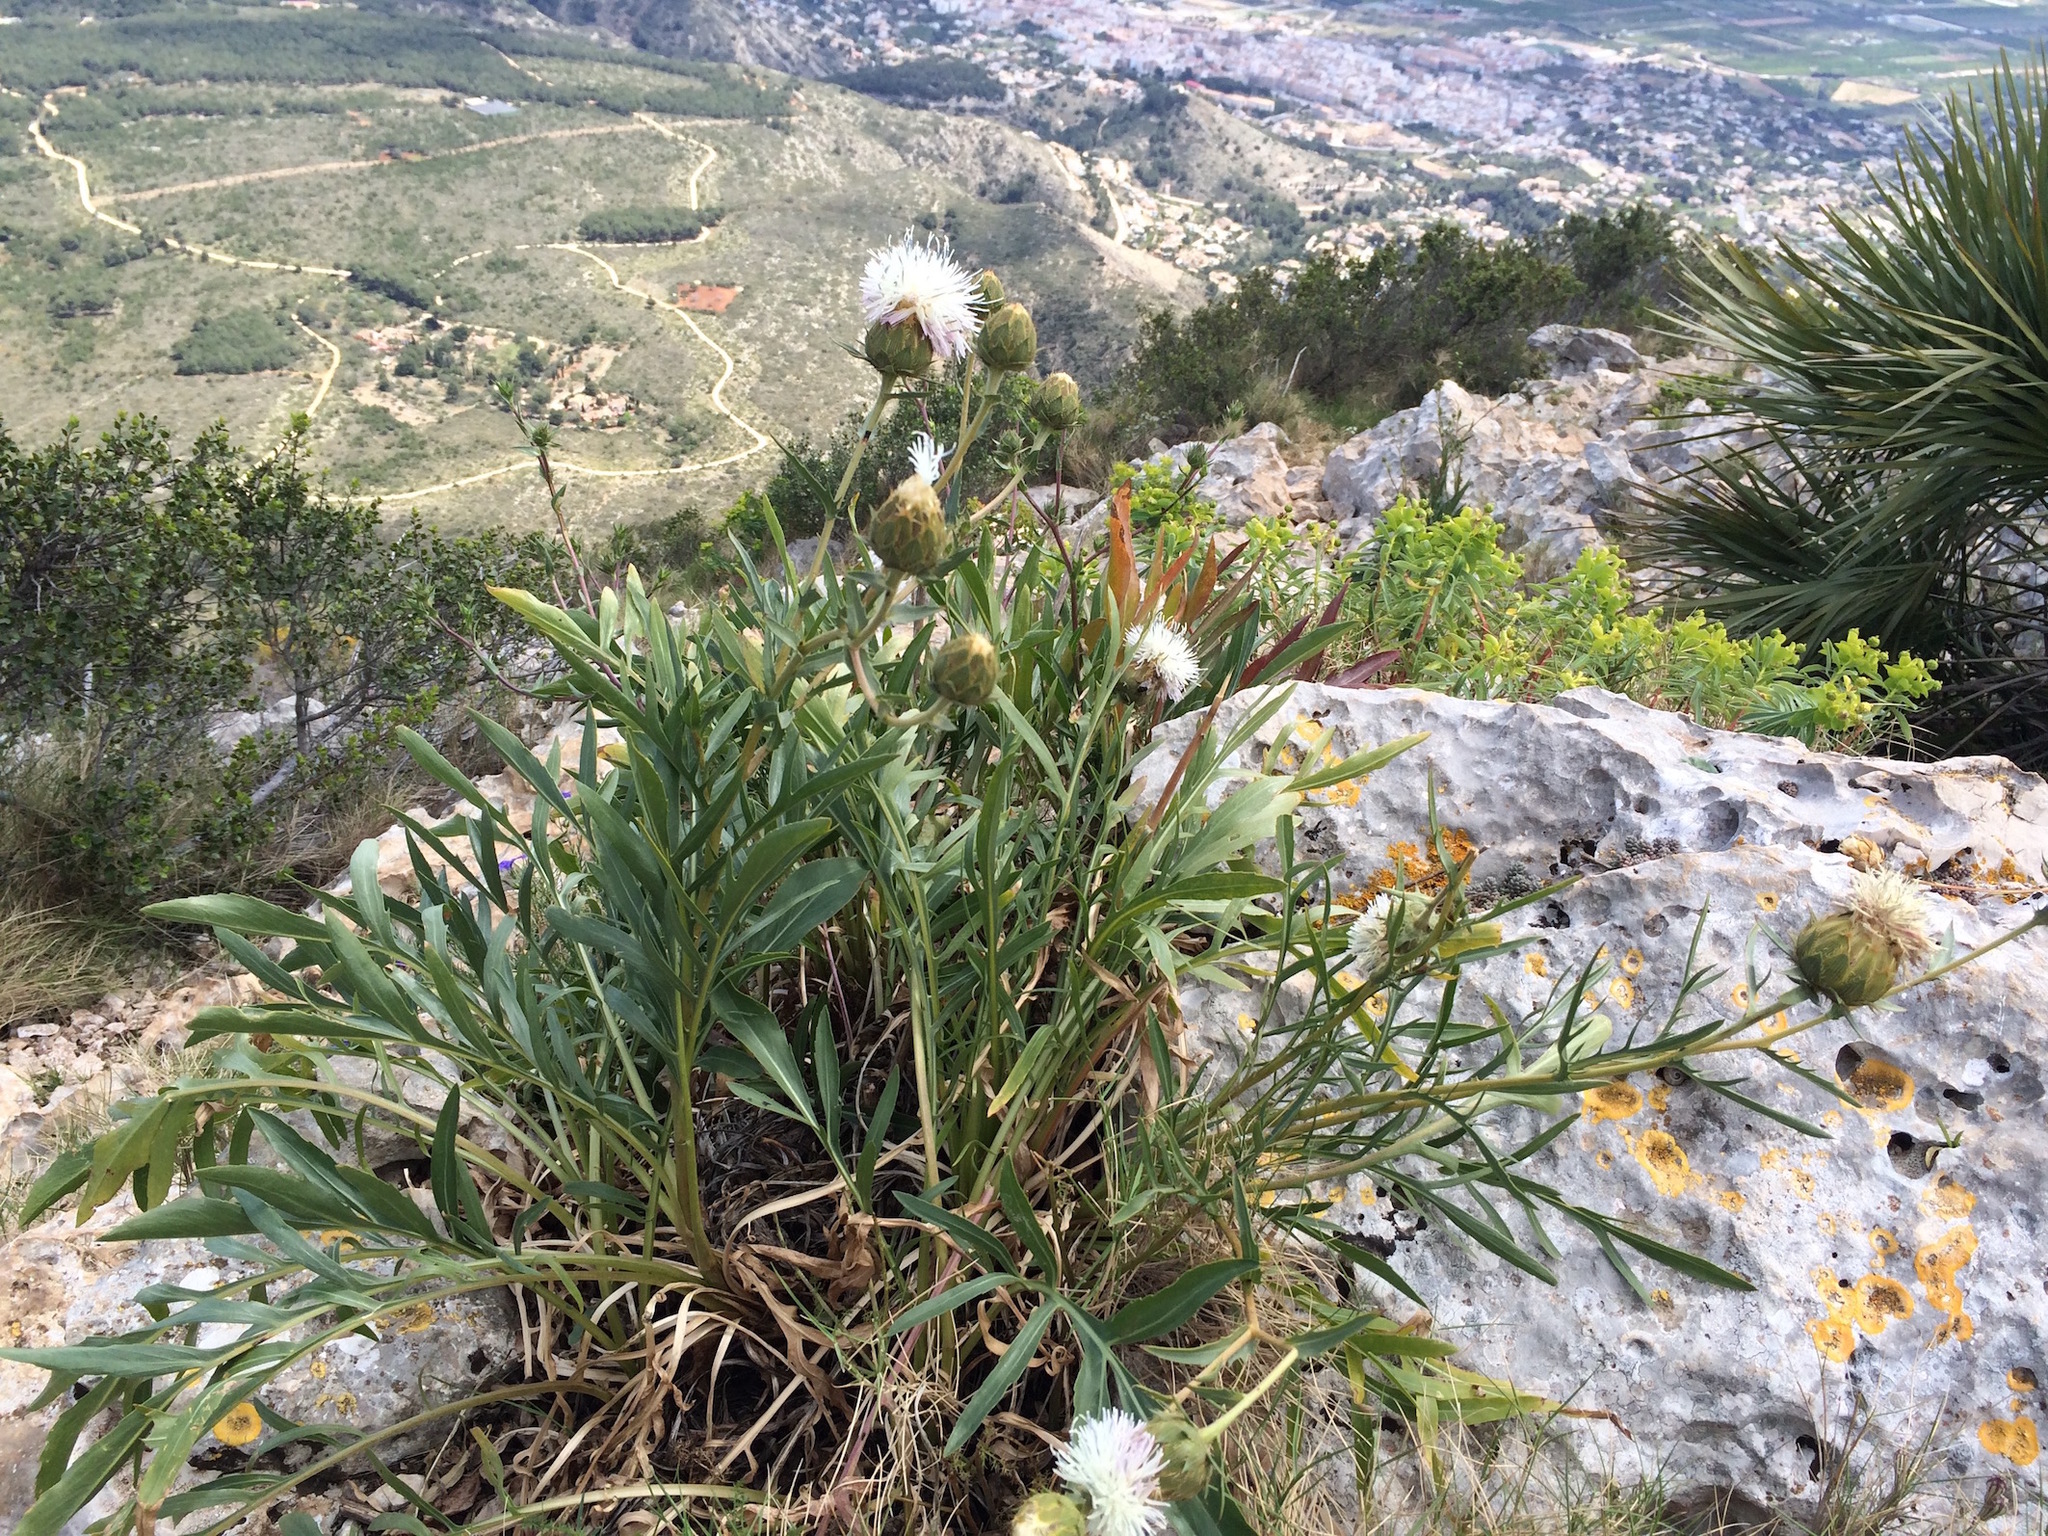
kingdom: Plantae
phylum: Tracheophyta
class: Magnoliopsida
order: Asterales
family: Asteraceae
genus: Carduncellus
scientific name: Carduncellus dianius
